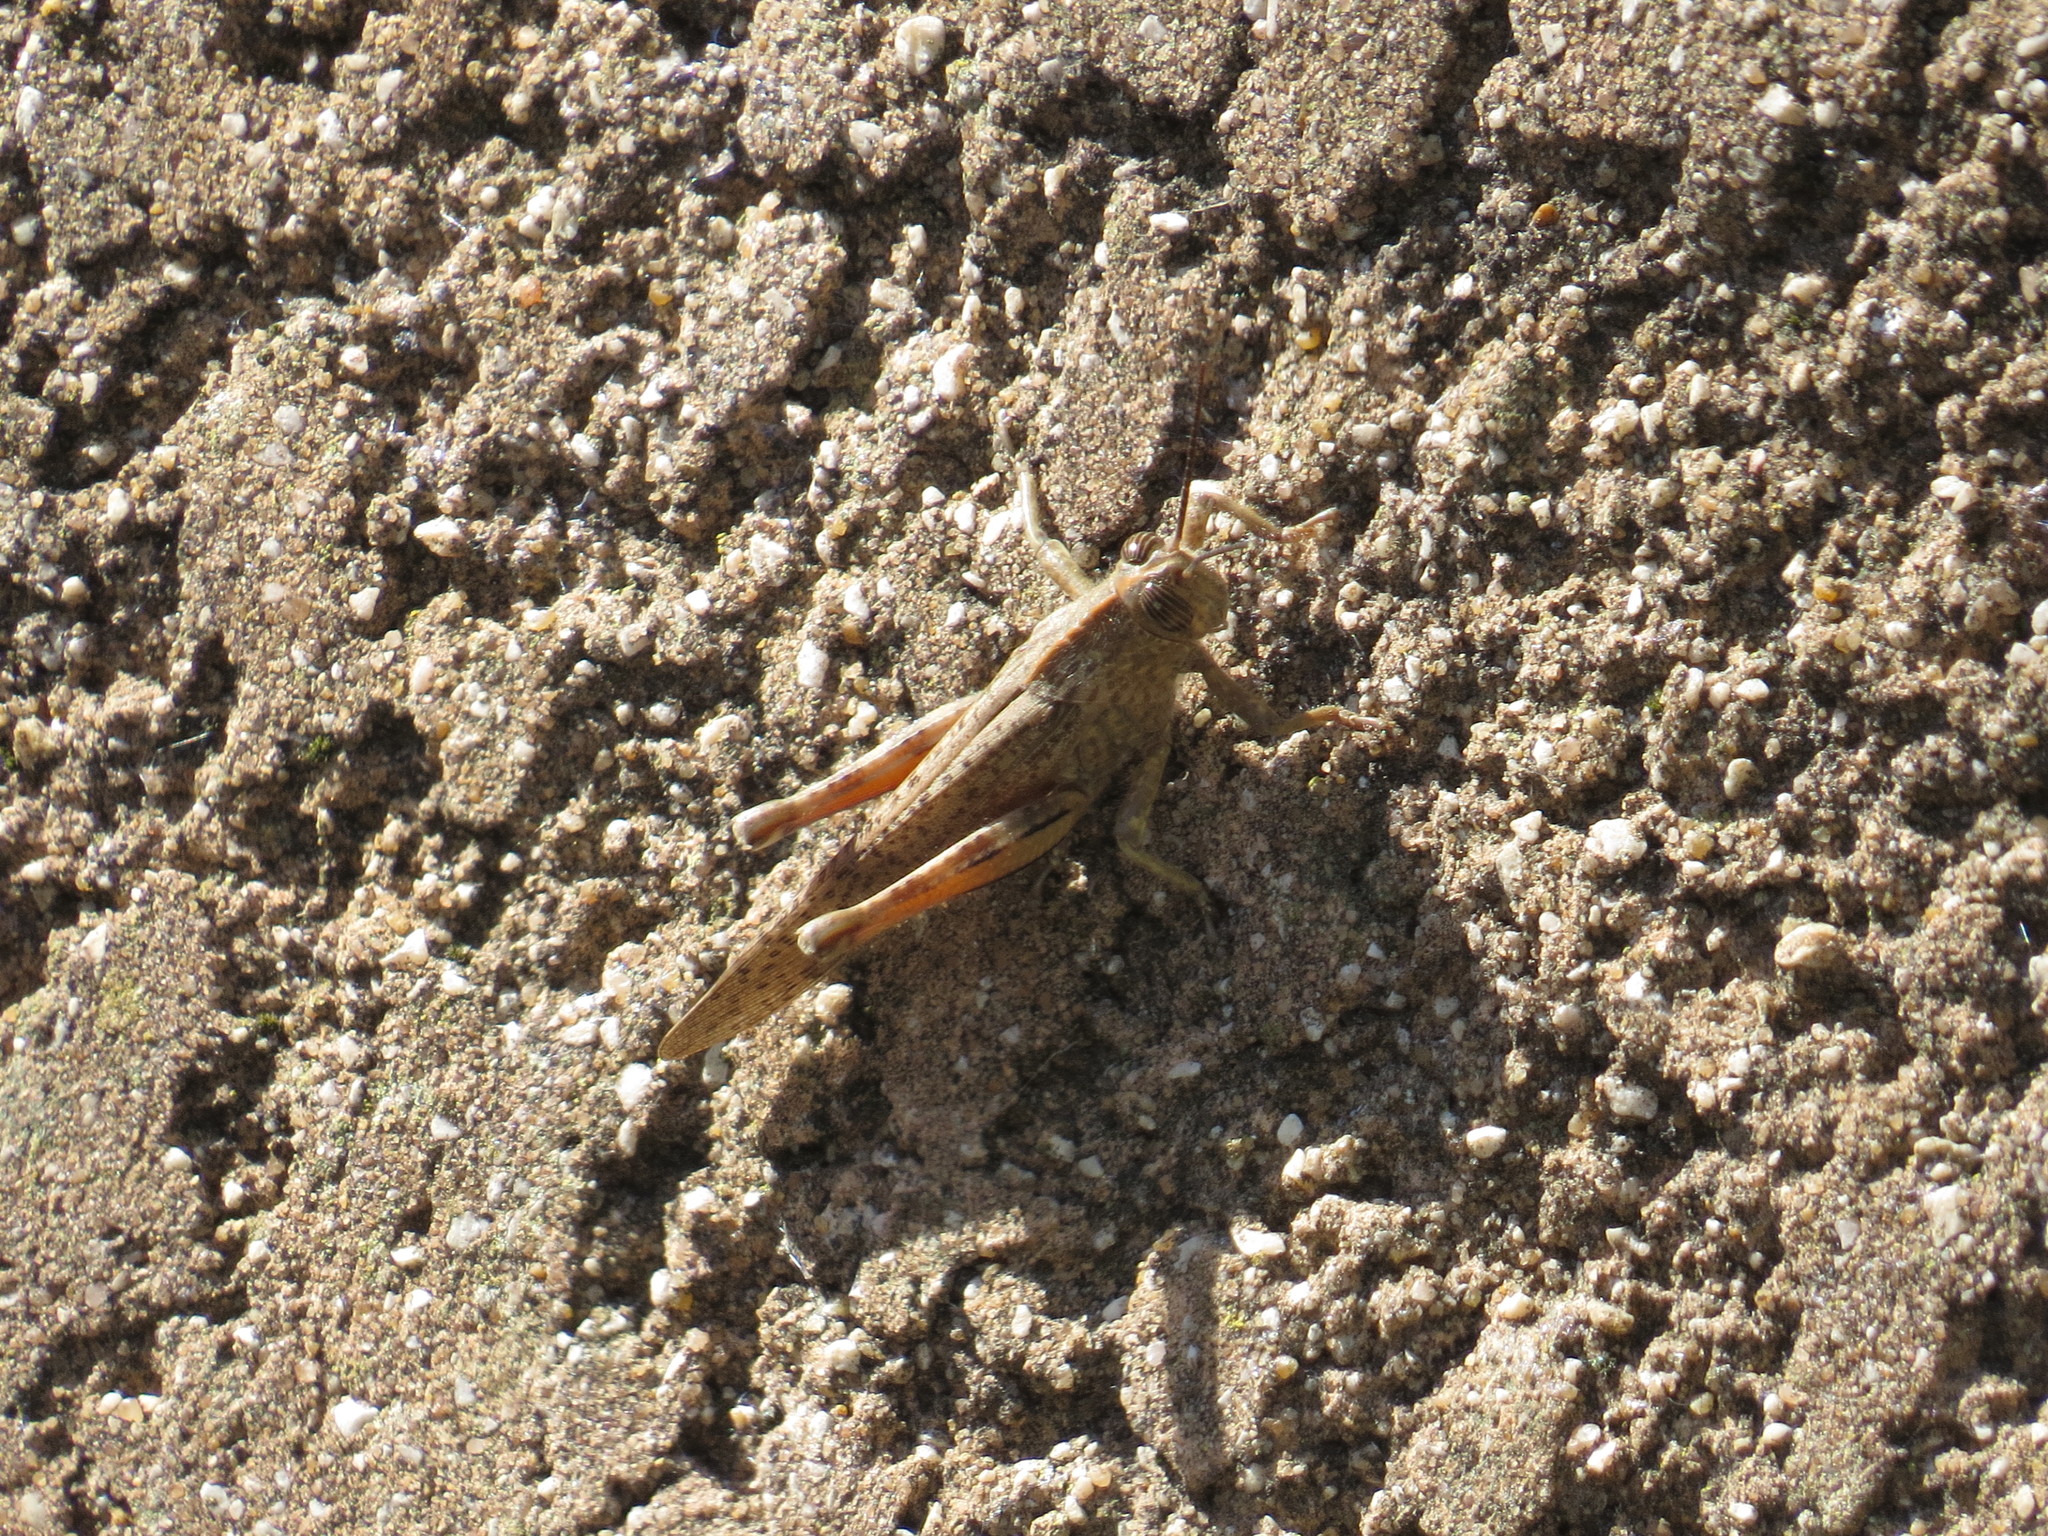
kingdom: Animalia
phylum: Arthropoda
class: Insecta
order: Orthoptera
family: Acrididae
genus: Anacridium
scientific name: Anacridium aegyptium
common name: Egyptian grasshopper
